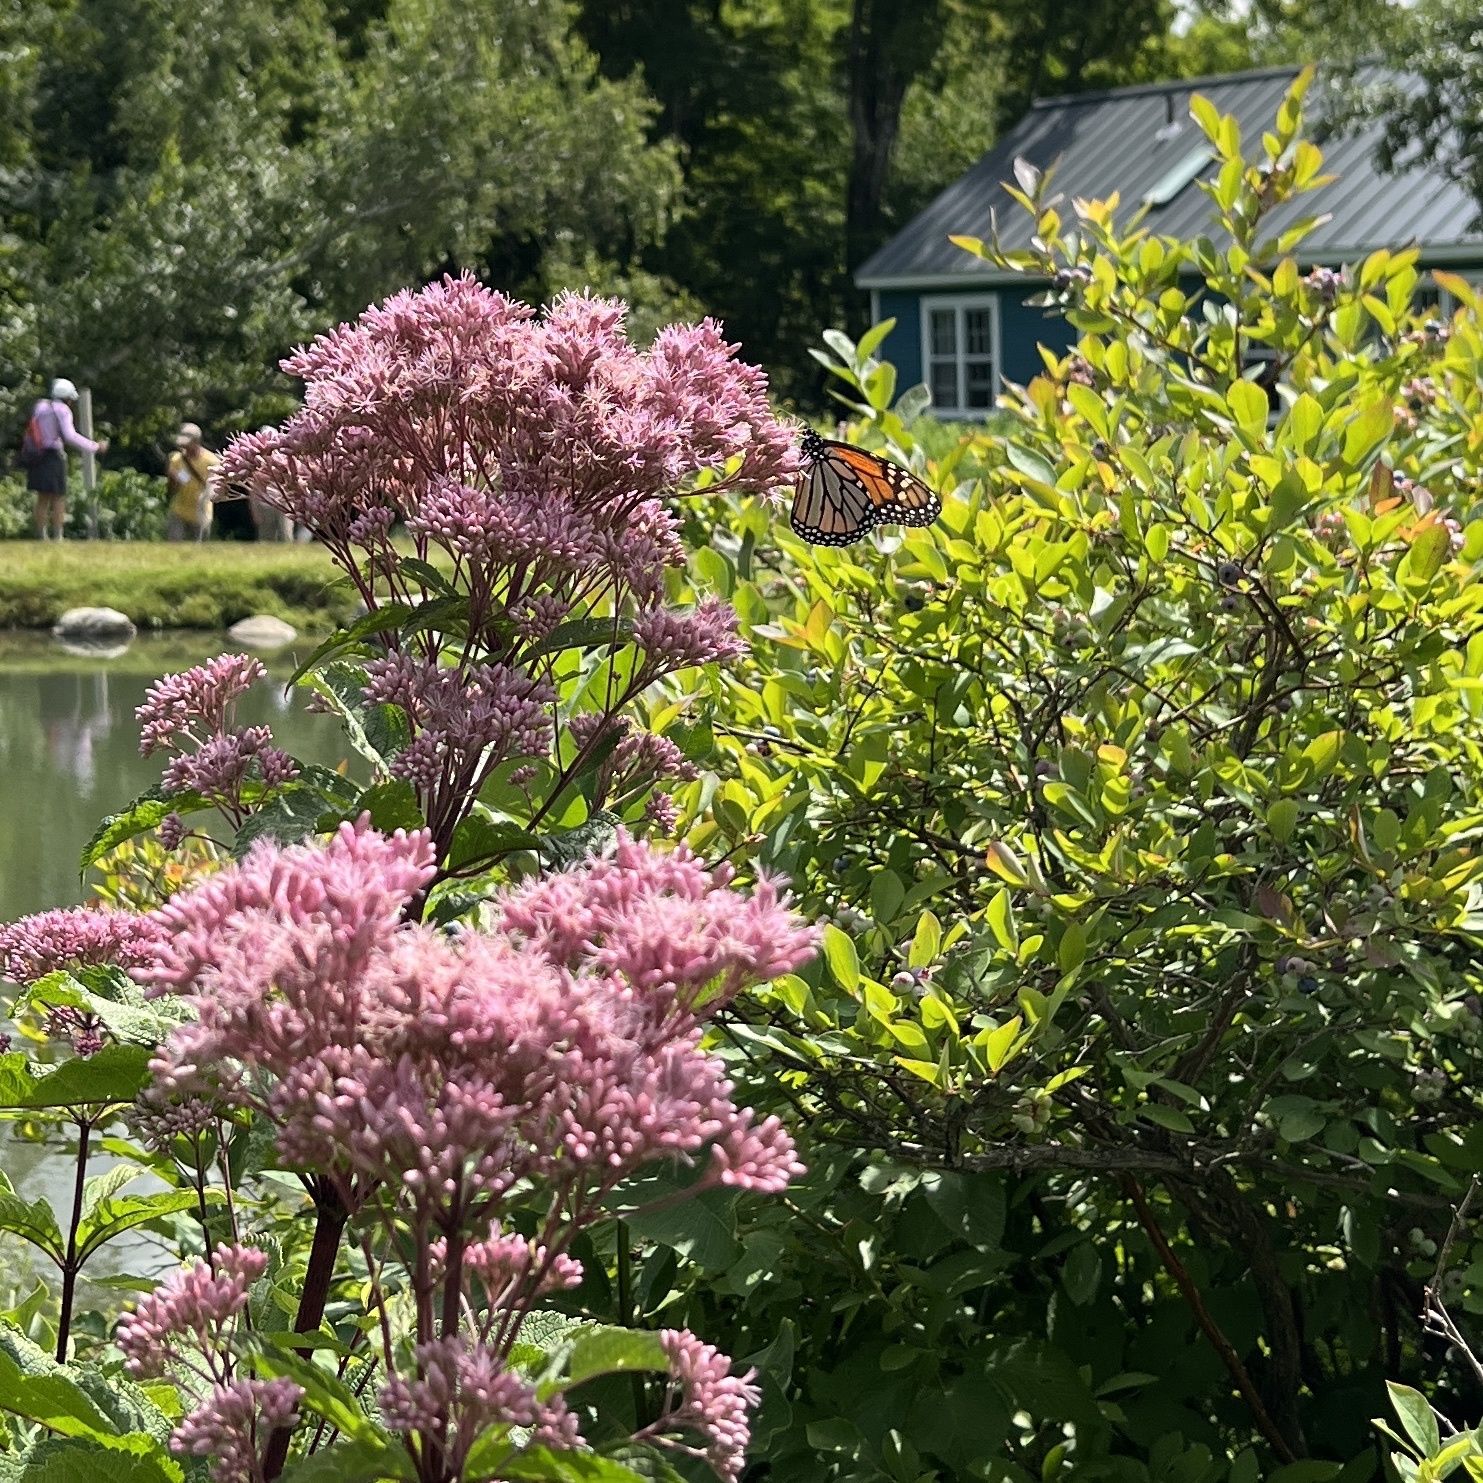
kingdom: Animalia
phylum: Arthropoda
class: Insecta
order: Lepidoptera
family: Nymphalidae
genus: Danaus
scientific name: Danaus plexippus
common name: Monarch
